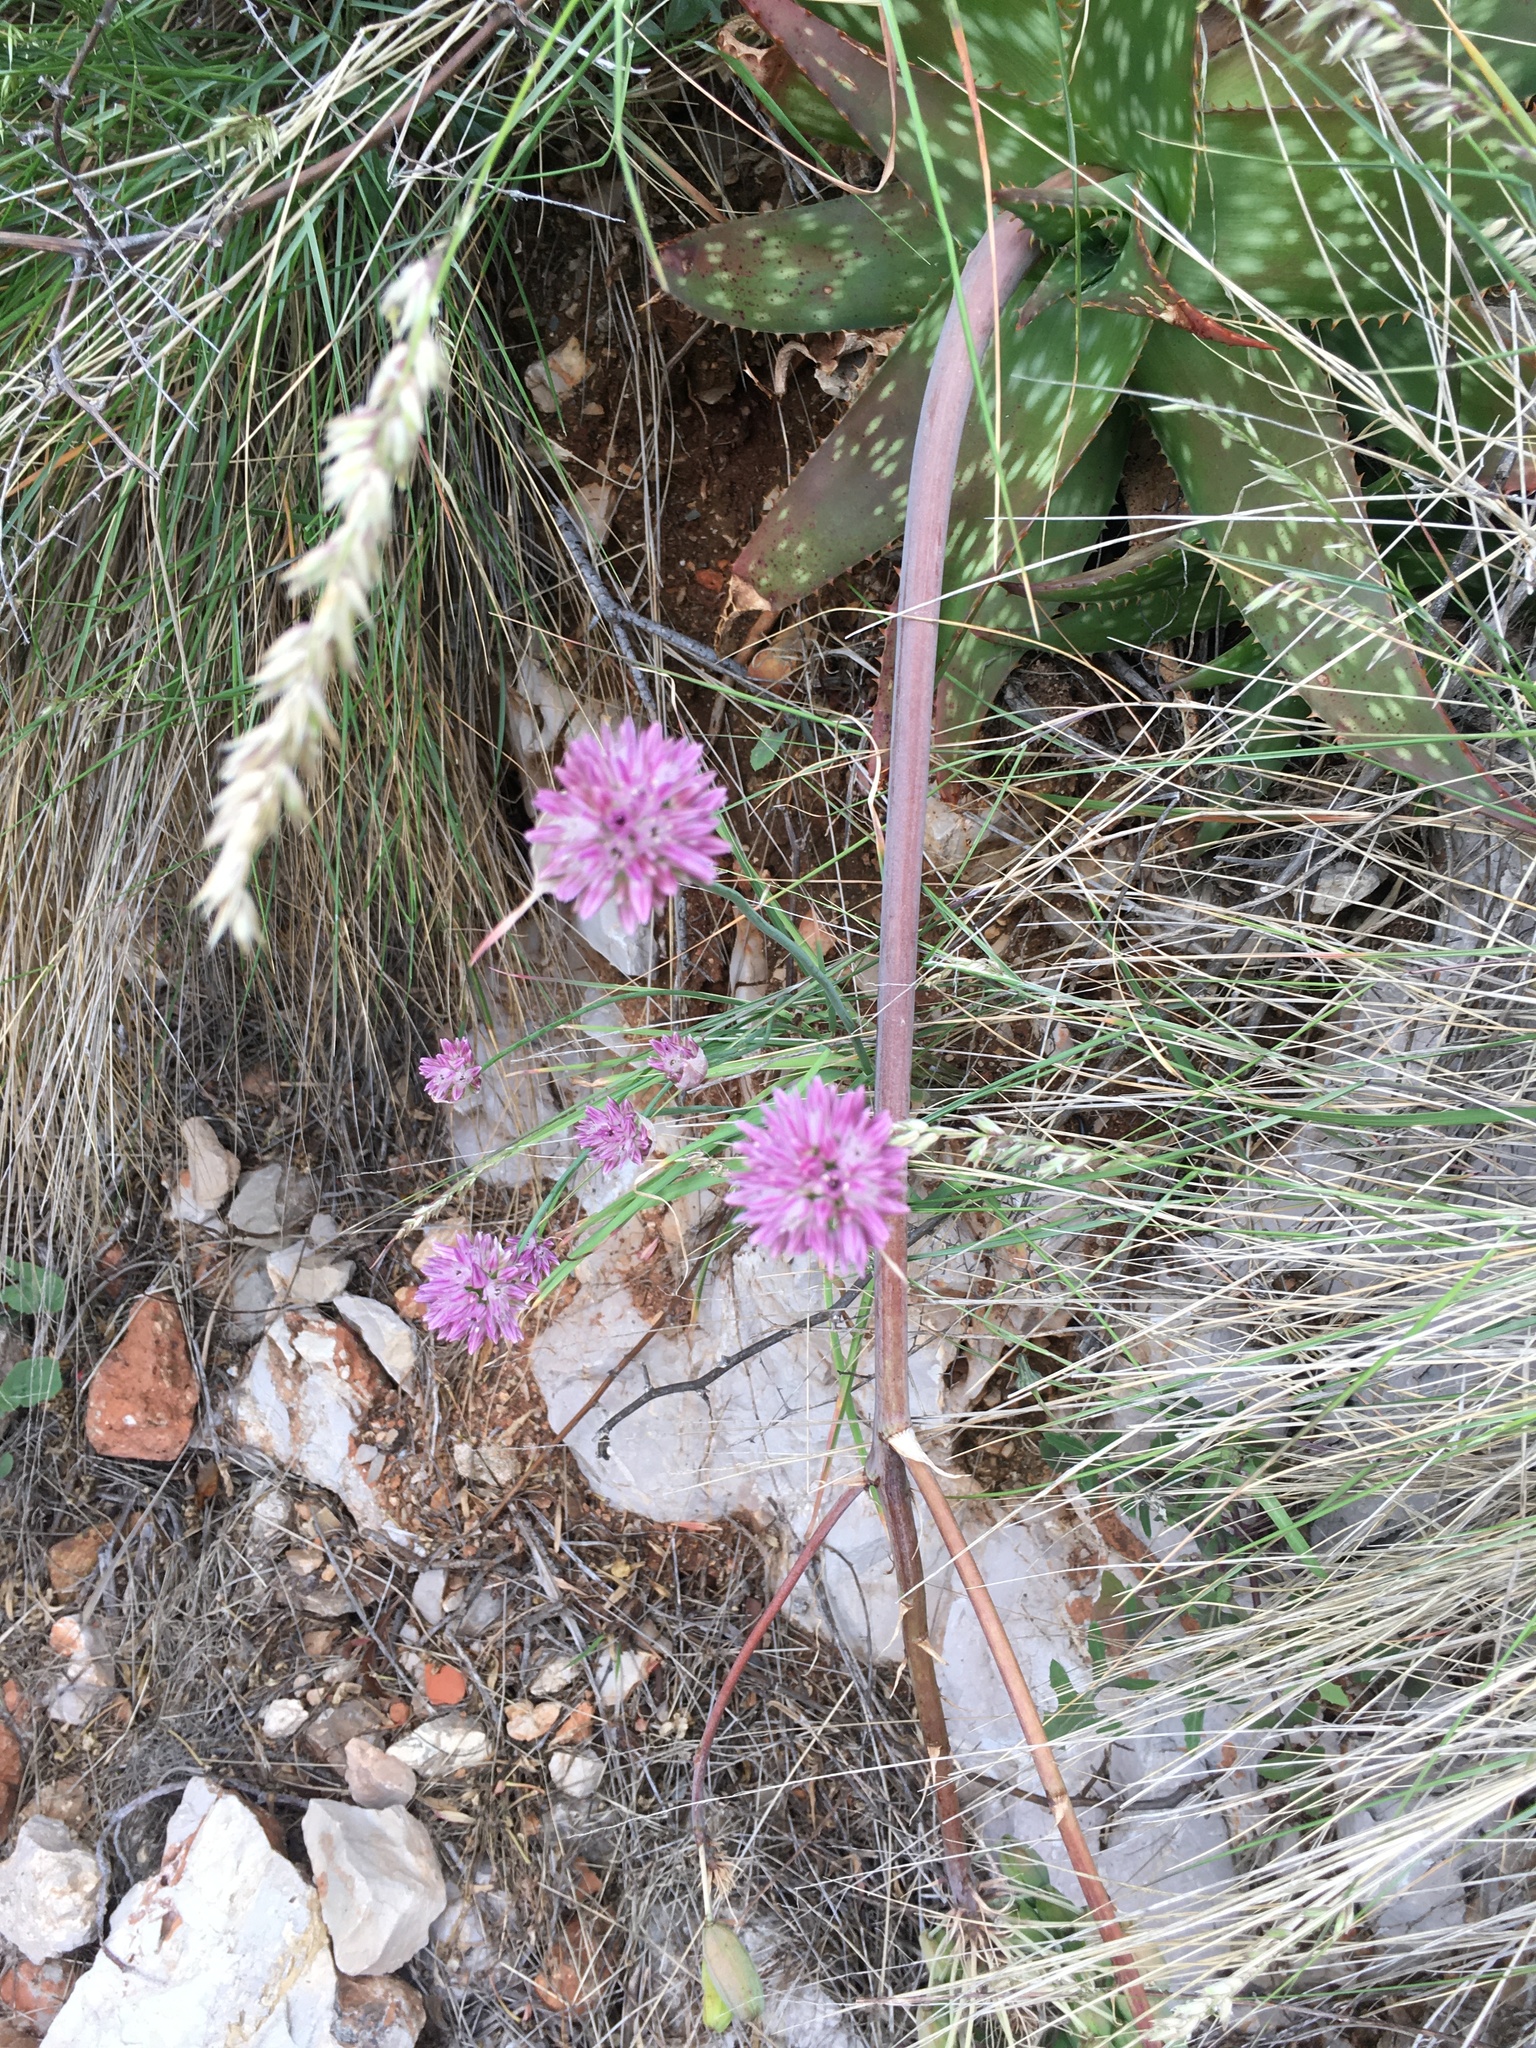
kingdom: Plantae
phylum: Tracheophyta
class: Liliopsida
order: Asparagales
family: Amaryllidaceae
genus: Allium
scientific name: Allium acutiflorum
